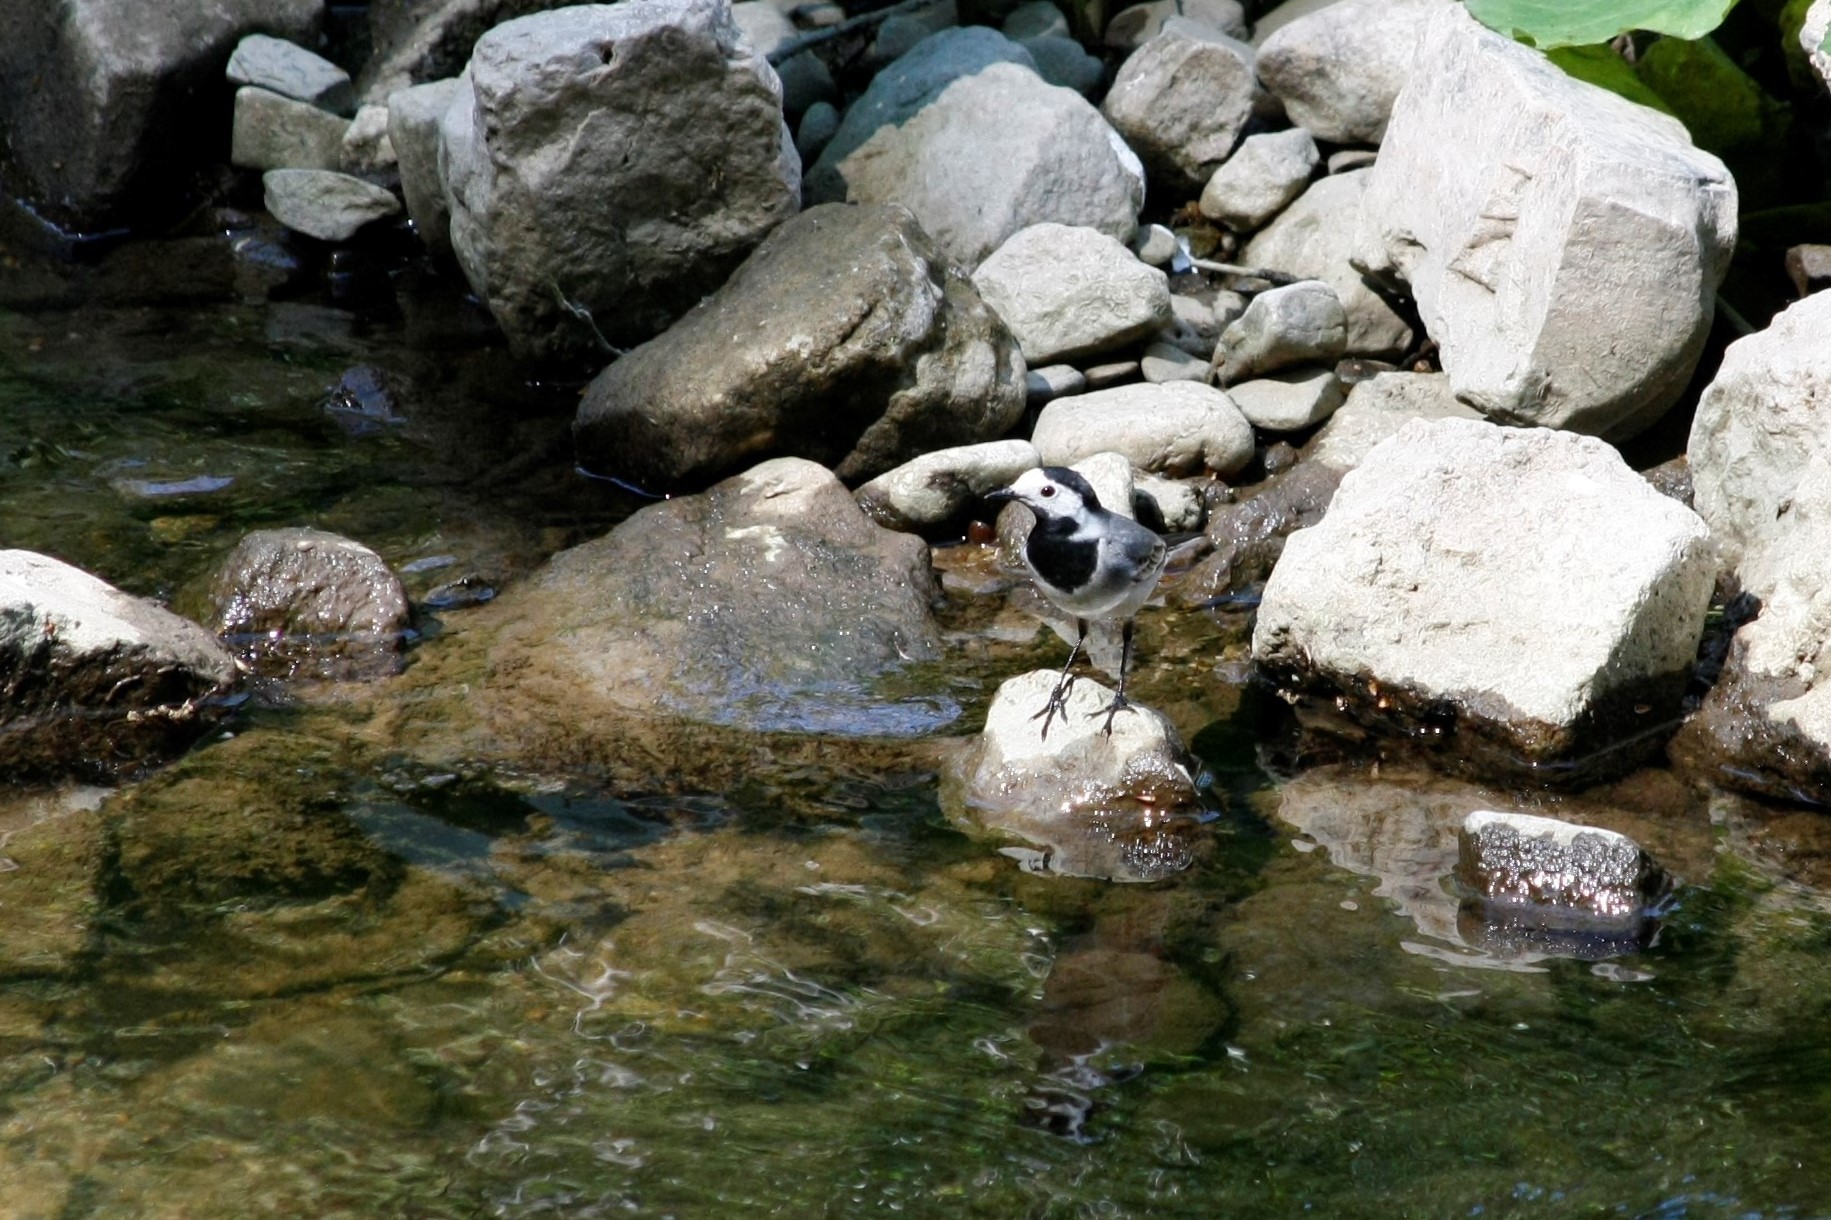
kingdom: Animalia
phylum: Chordata
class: Aves
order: Passeriformes
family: Motacillidae
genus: Motacilla
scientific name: Motacilla alba
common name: White wagtail
